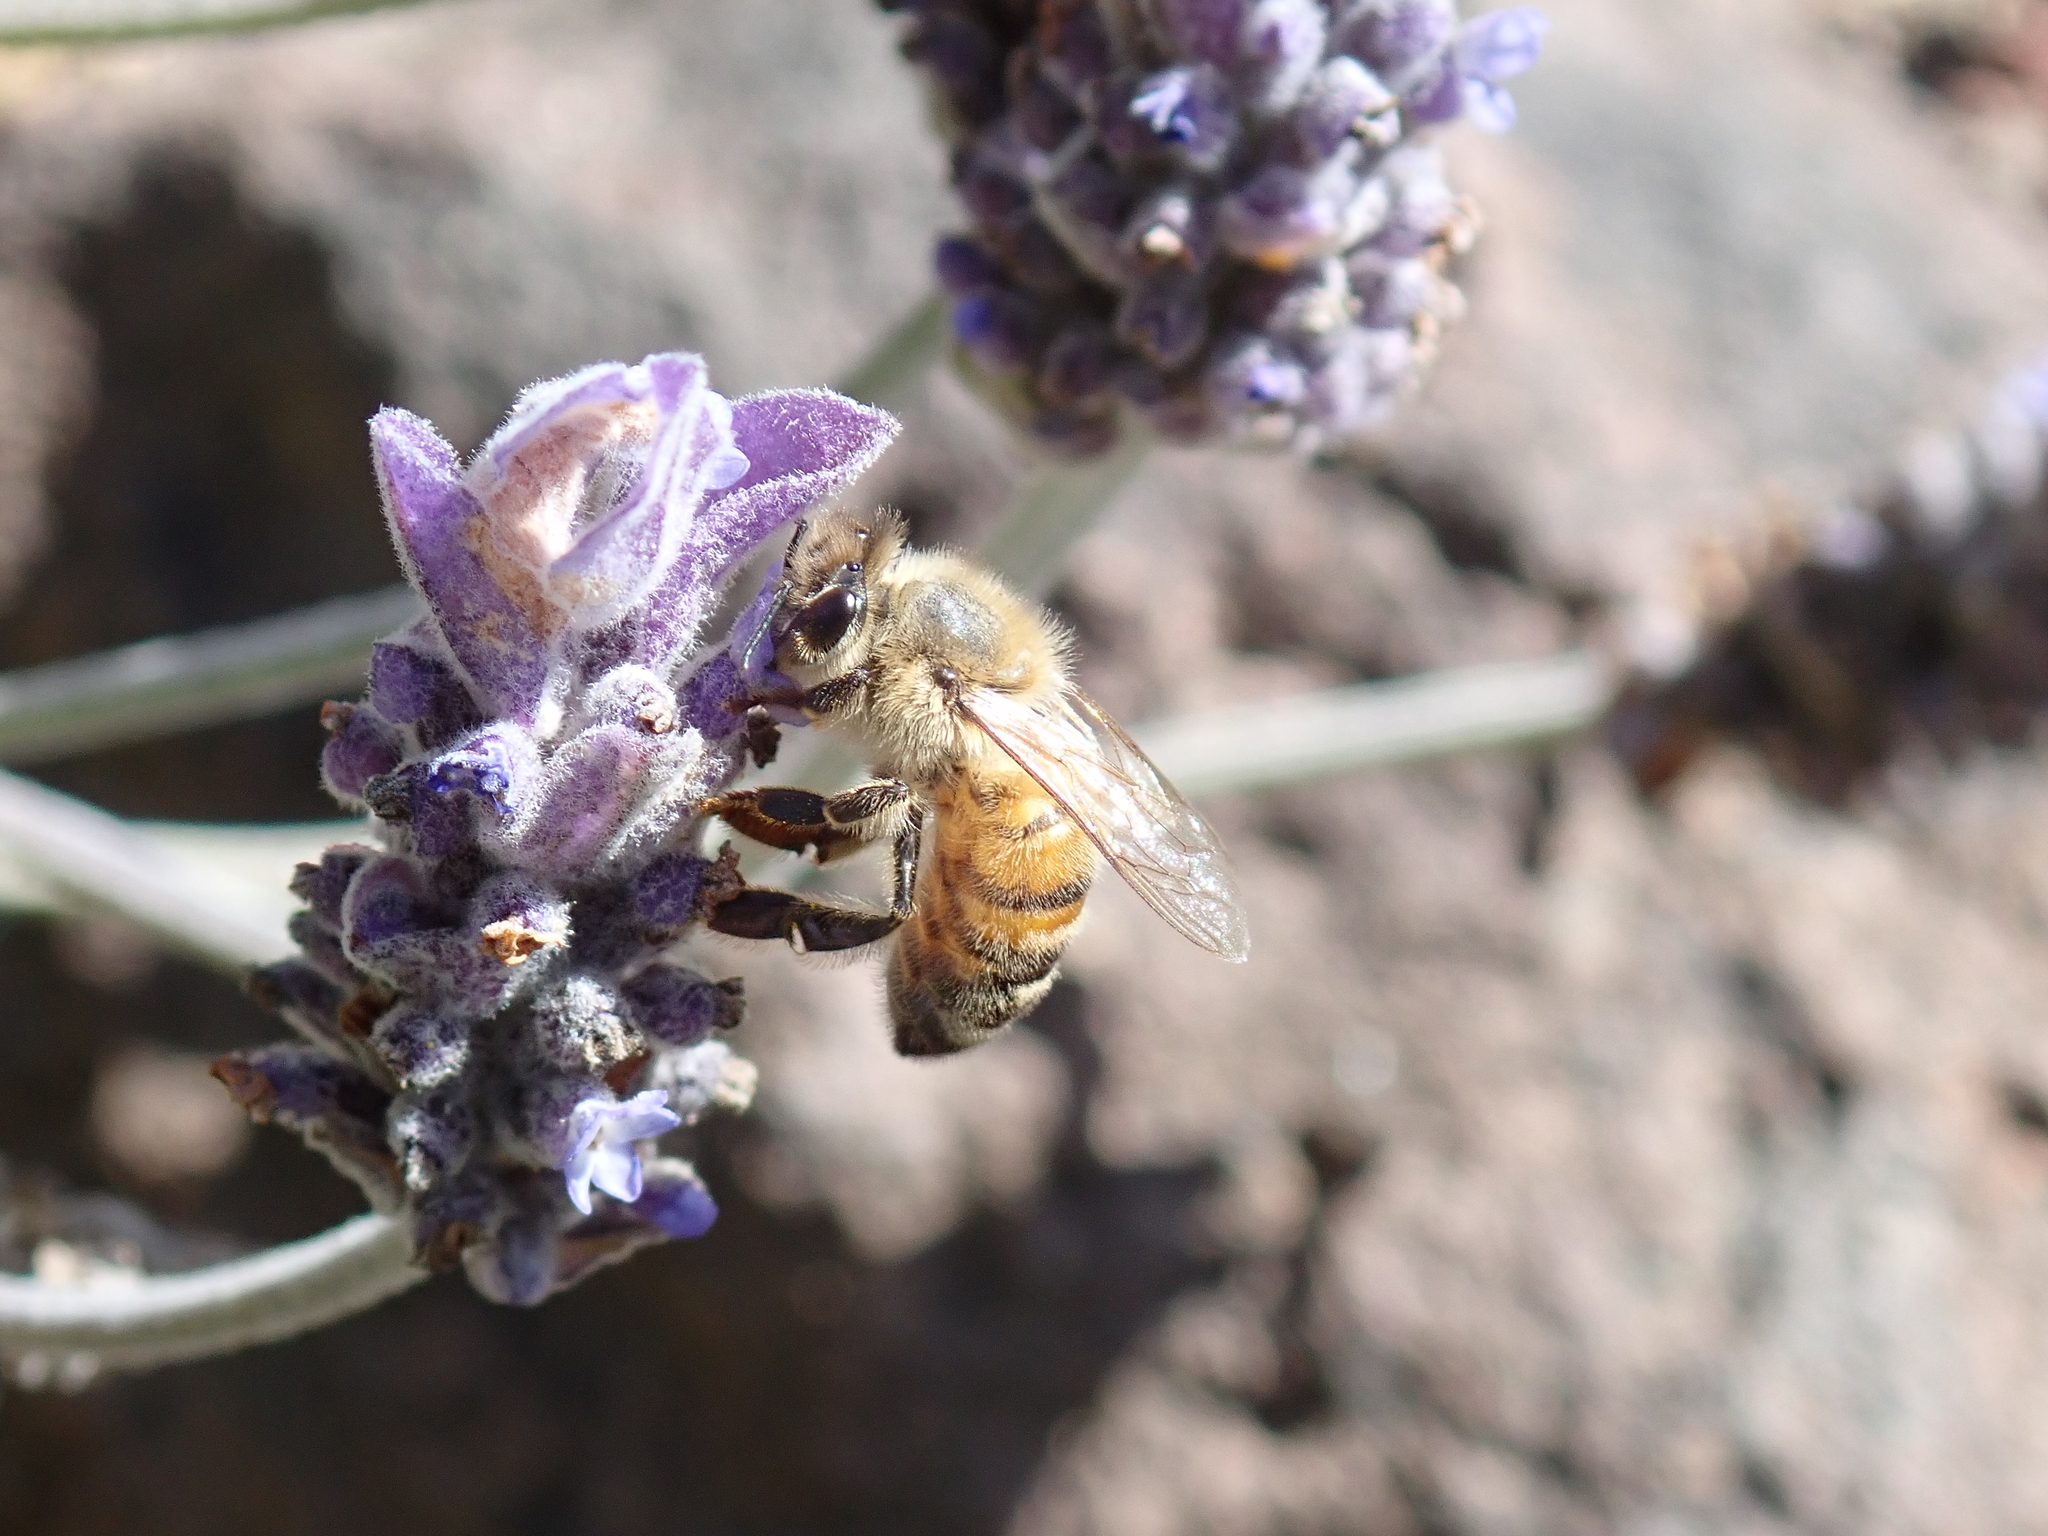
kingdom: Animalia
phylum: Arthropoda
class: Insecta
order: Hymenoptera
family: Apidae
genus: Apis
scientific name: Apis mellifera
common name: Honey bee
